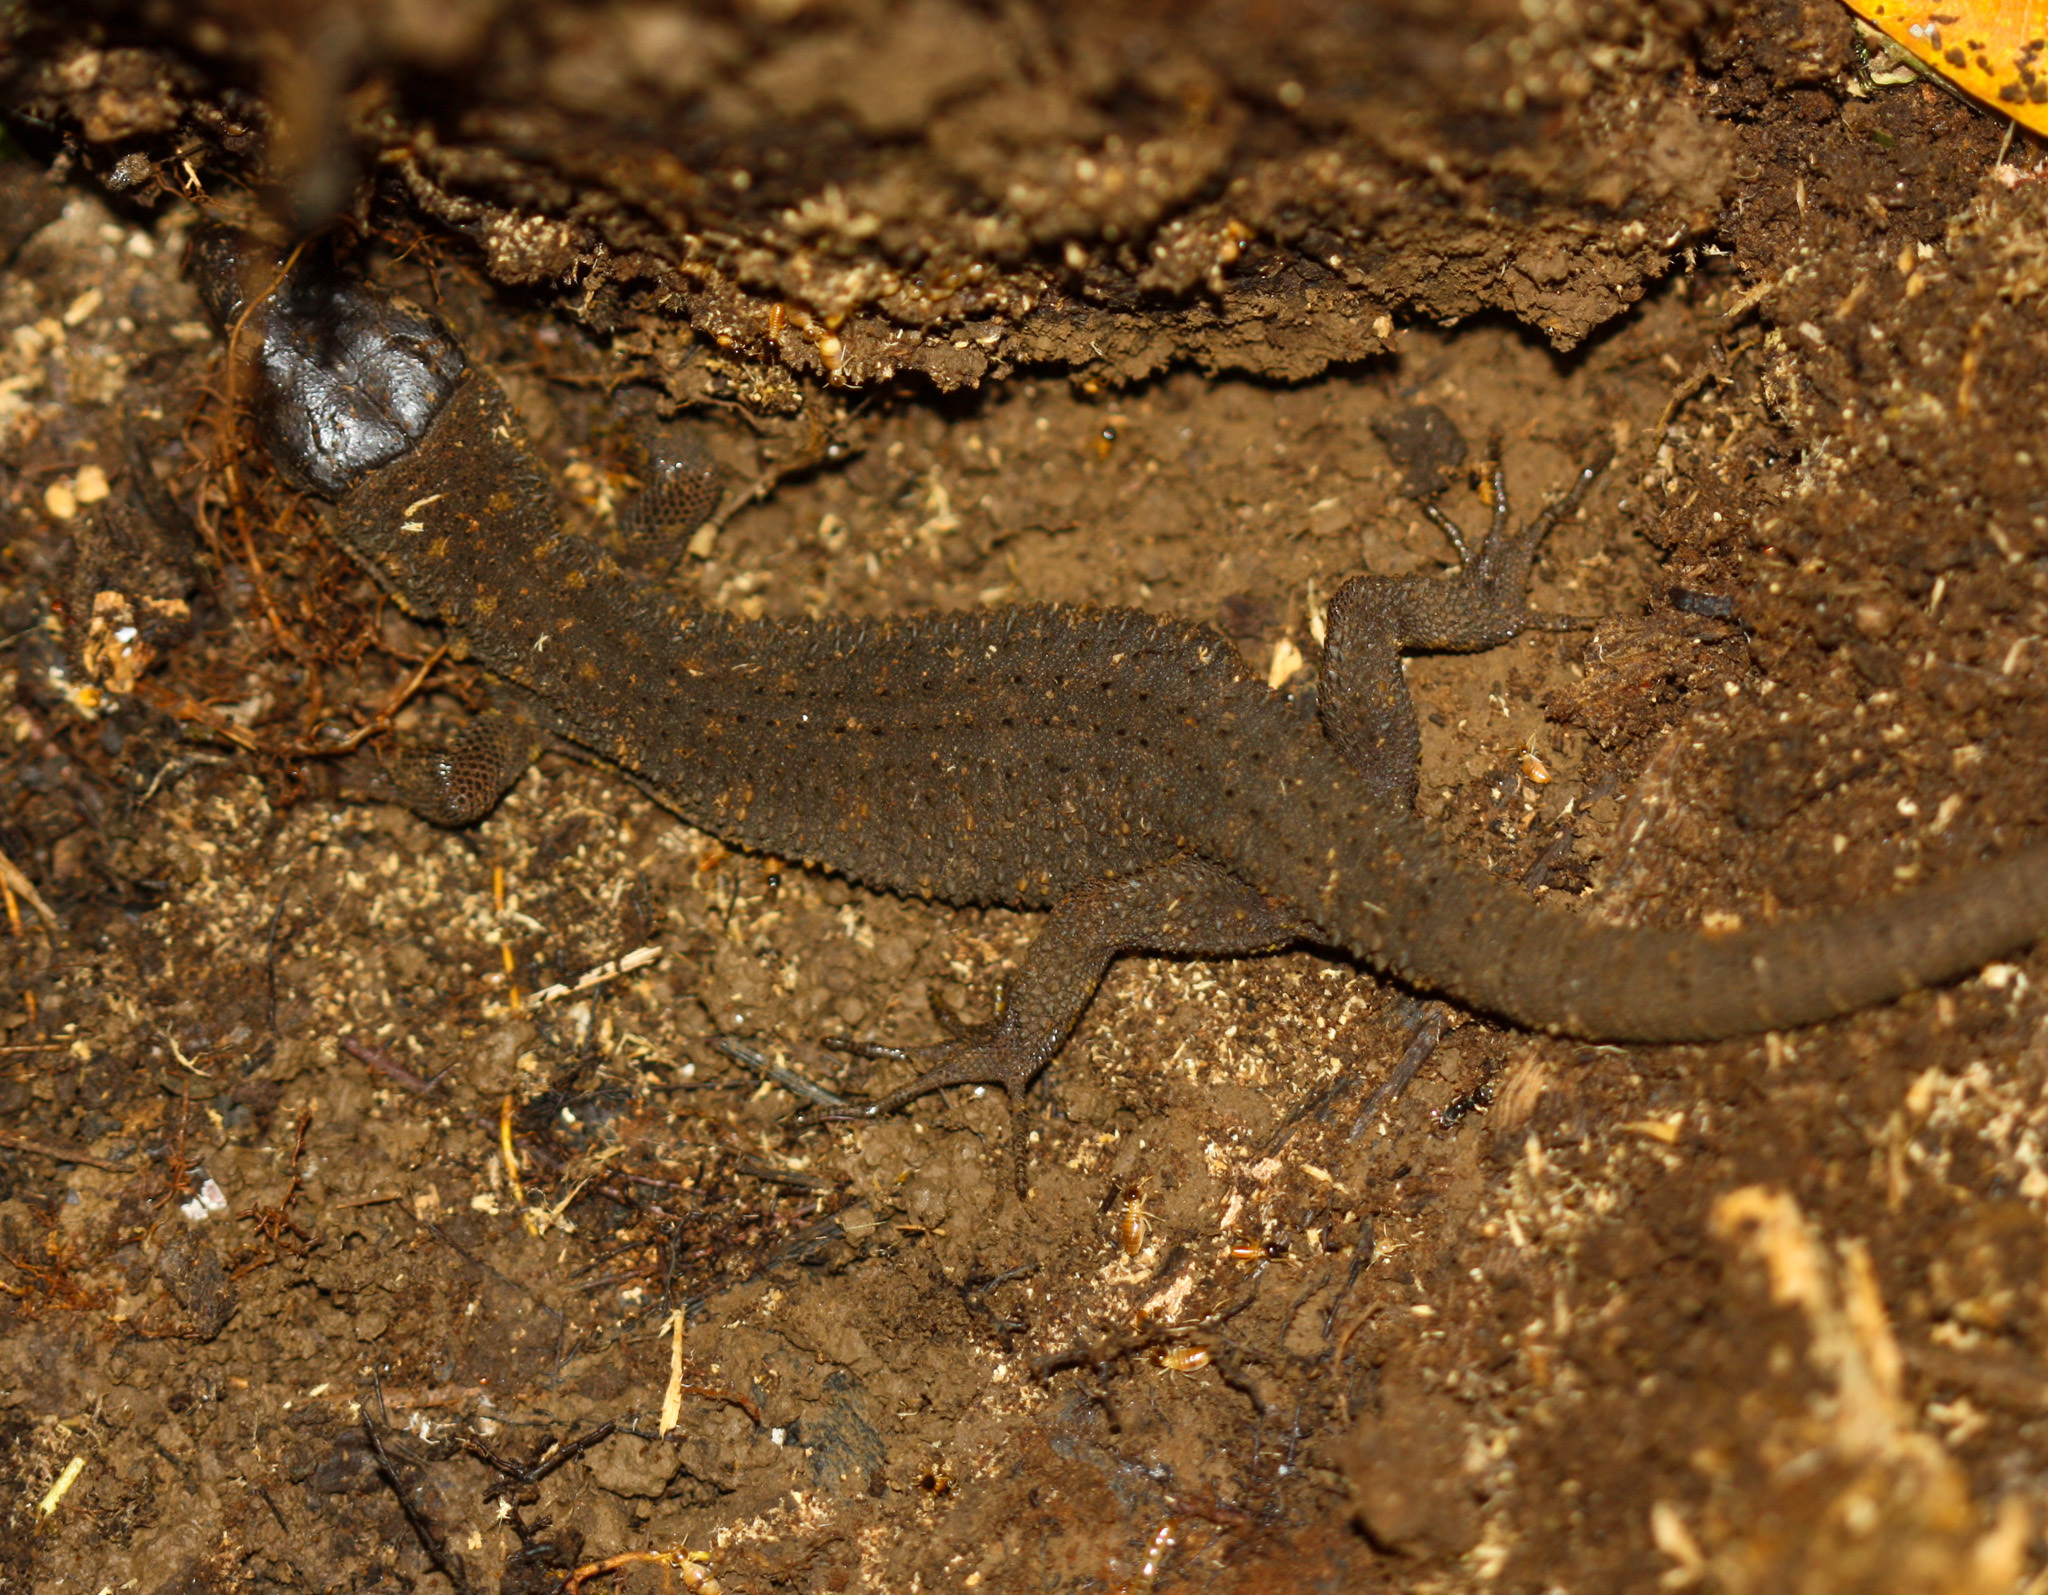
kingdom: Animalia
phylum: Chordata
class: Squamata
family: Xantusiidae
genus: Lepidophyma
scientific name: Lepidophyma flavimaculatum
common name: Yellow-spotted night lizard
